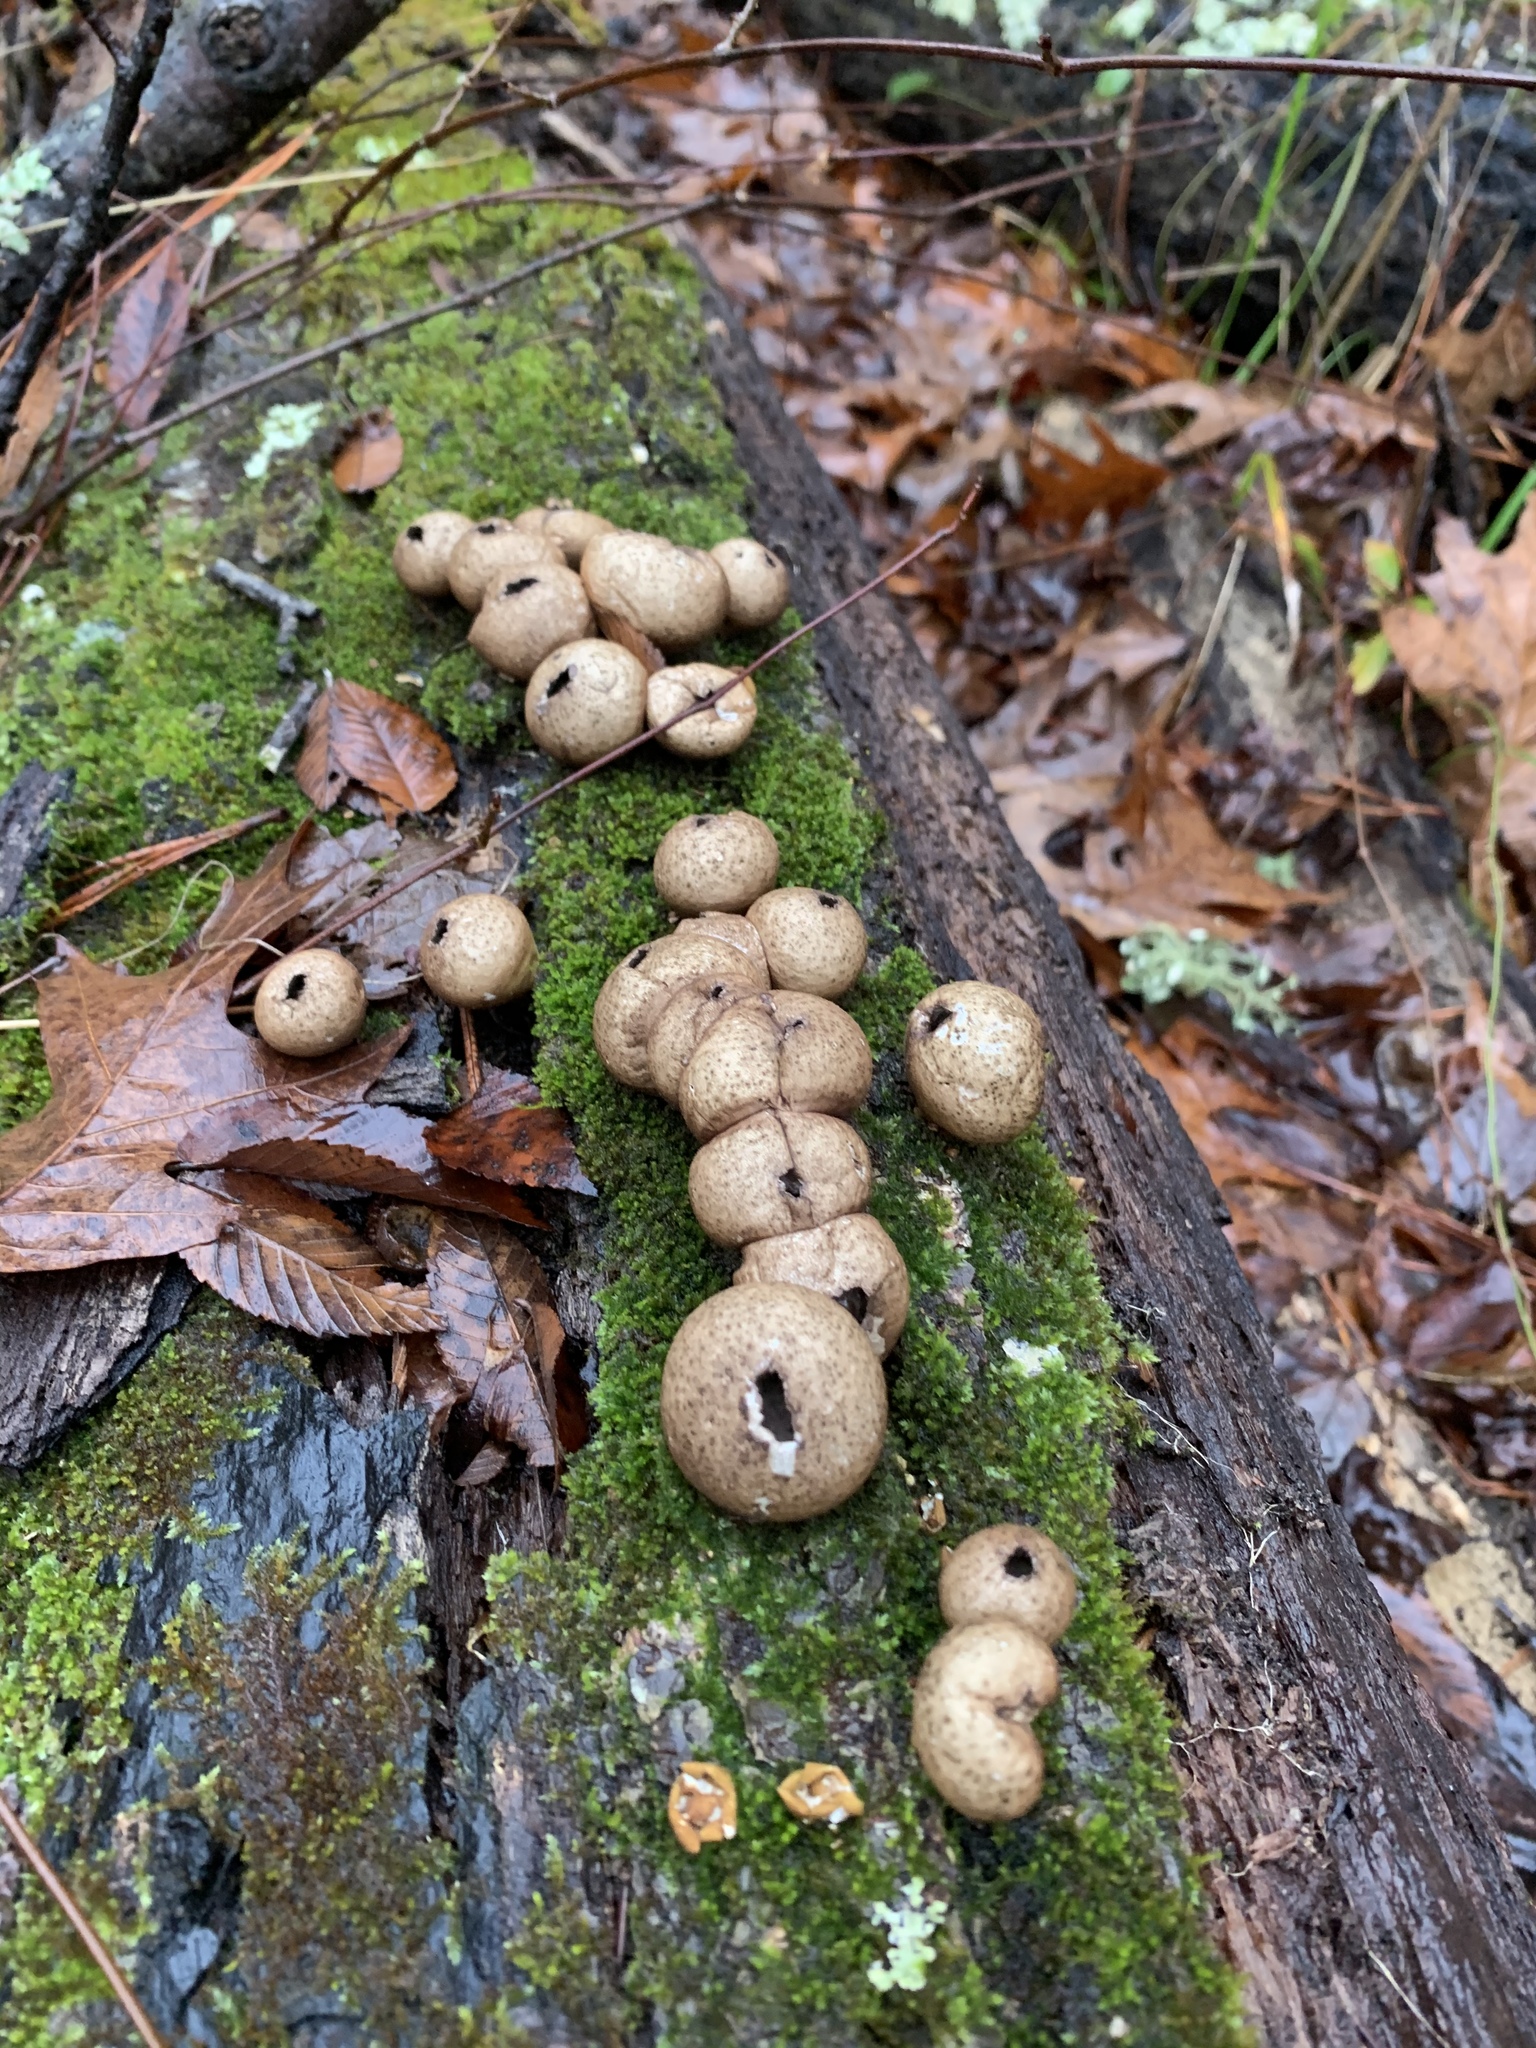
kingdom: Fungi
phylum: Basidiomycota
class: Agaricomycetes
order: Agaricales
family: Lycoperdaceae
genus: Apioperdon
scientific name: Apioperdon pyriforme
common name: Pear-shaped puffball
